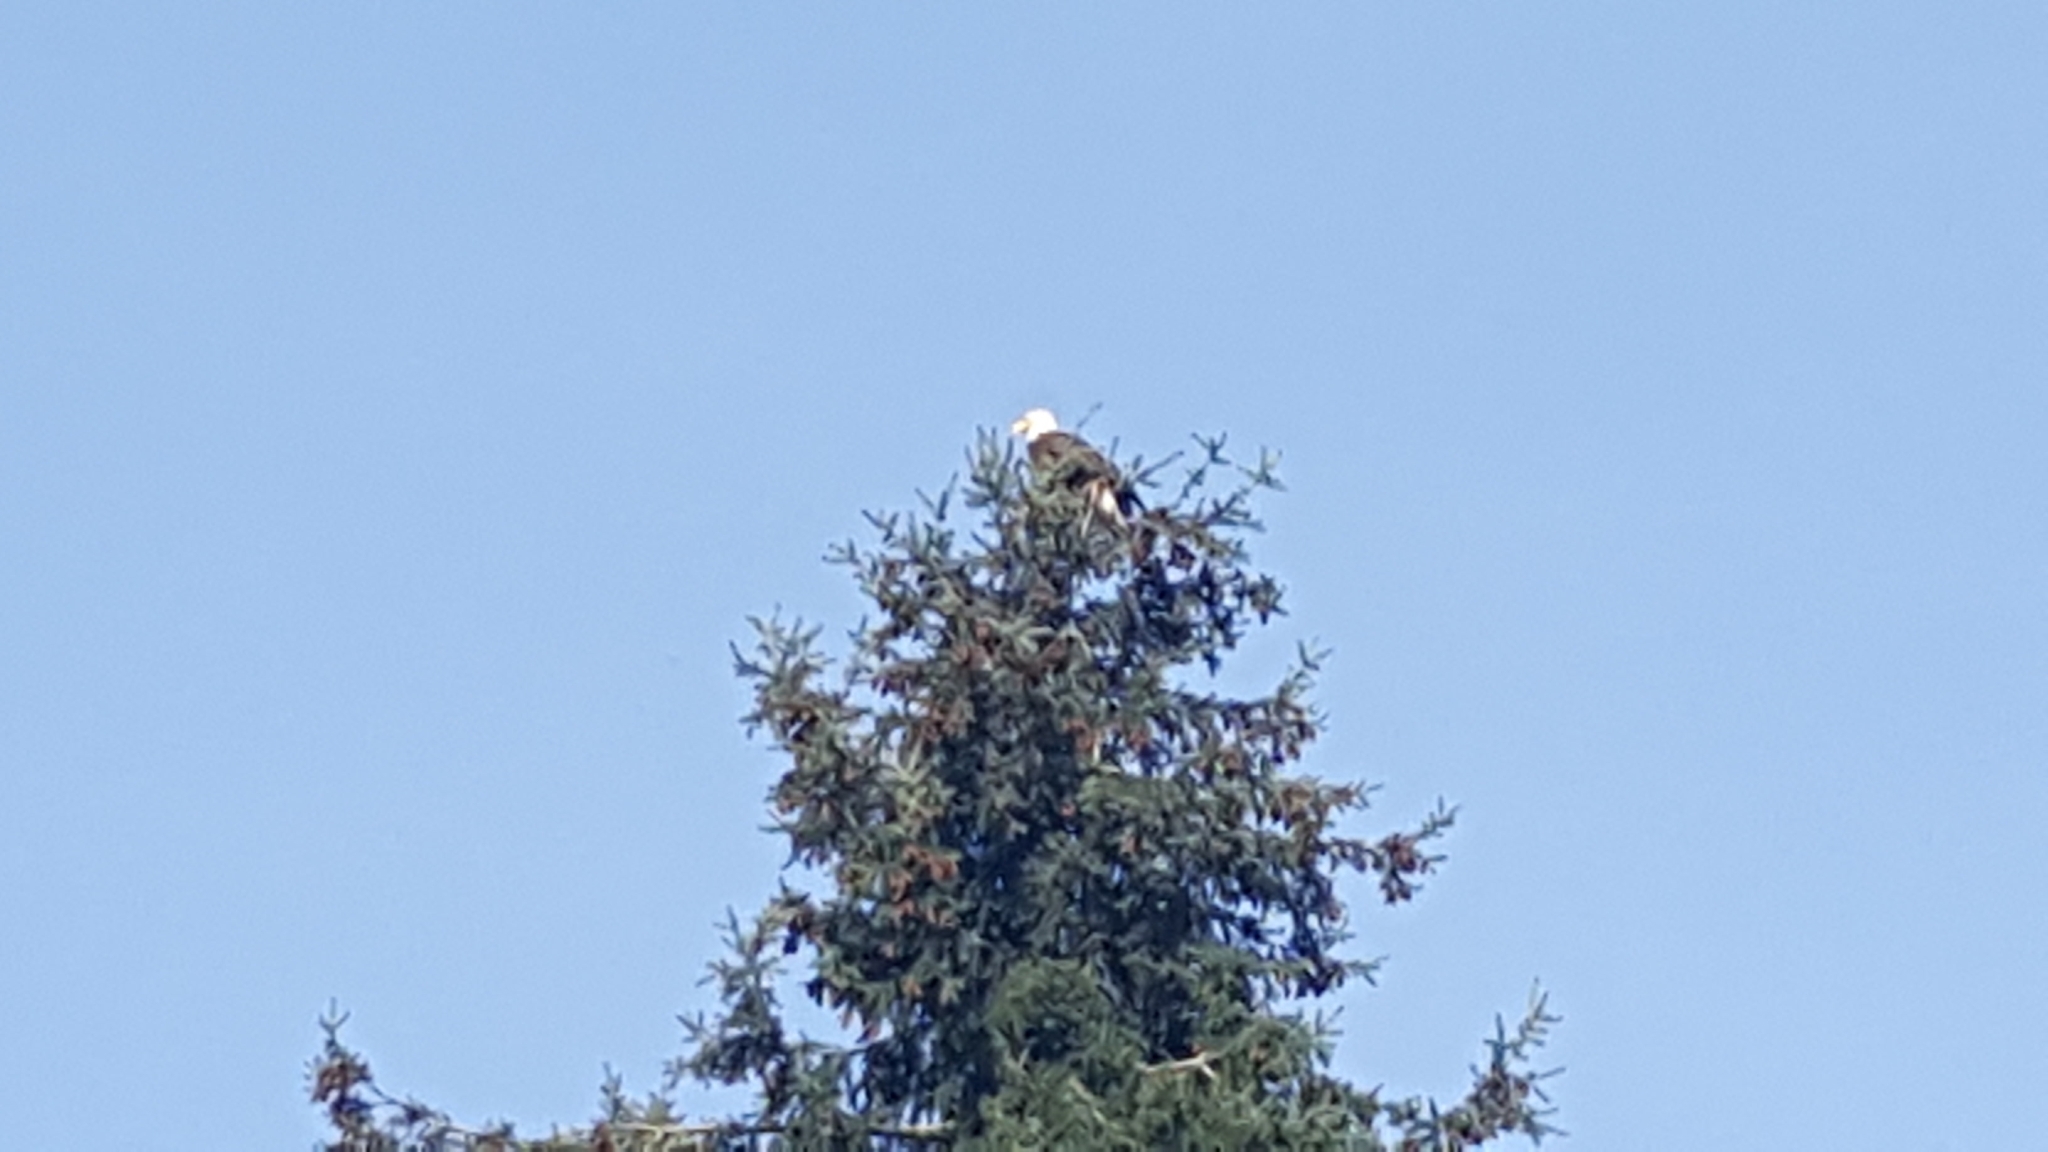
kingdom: Animalia
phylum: Chordata
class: Aves
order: Accipitriformes
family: Accipitridae
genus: Haliaeetus
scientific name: Haliaeetus leucocephalus
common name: Bald eagle
